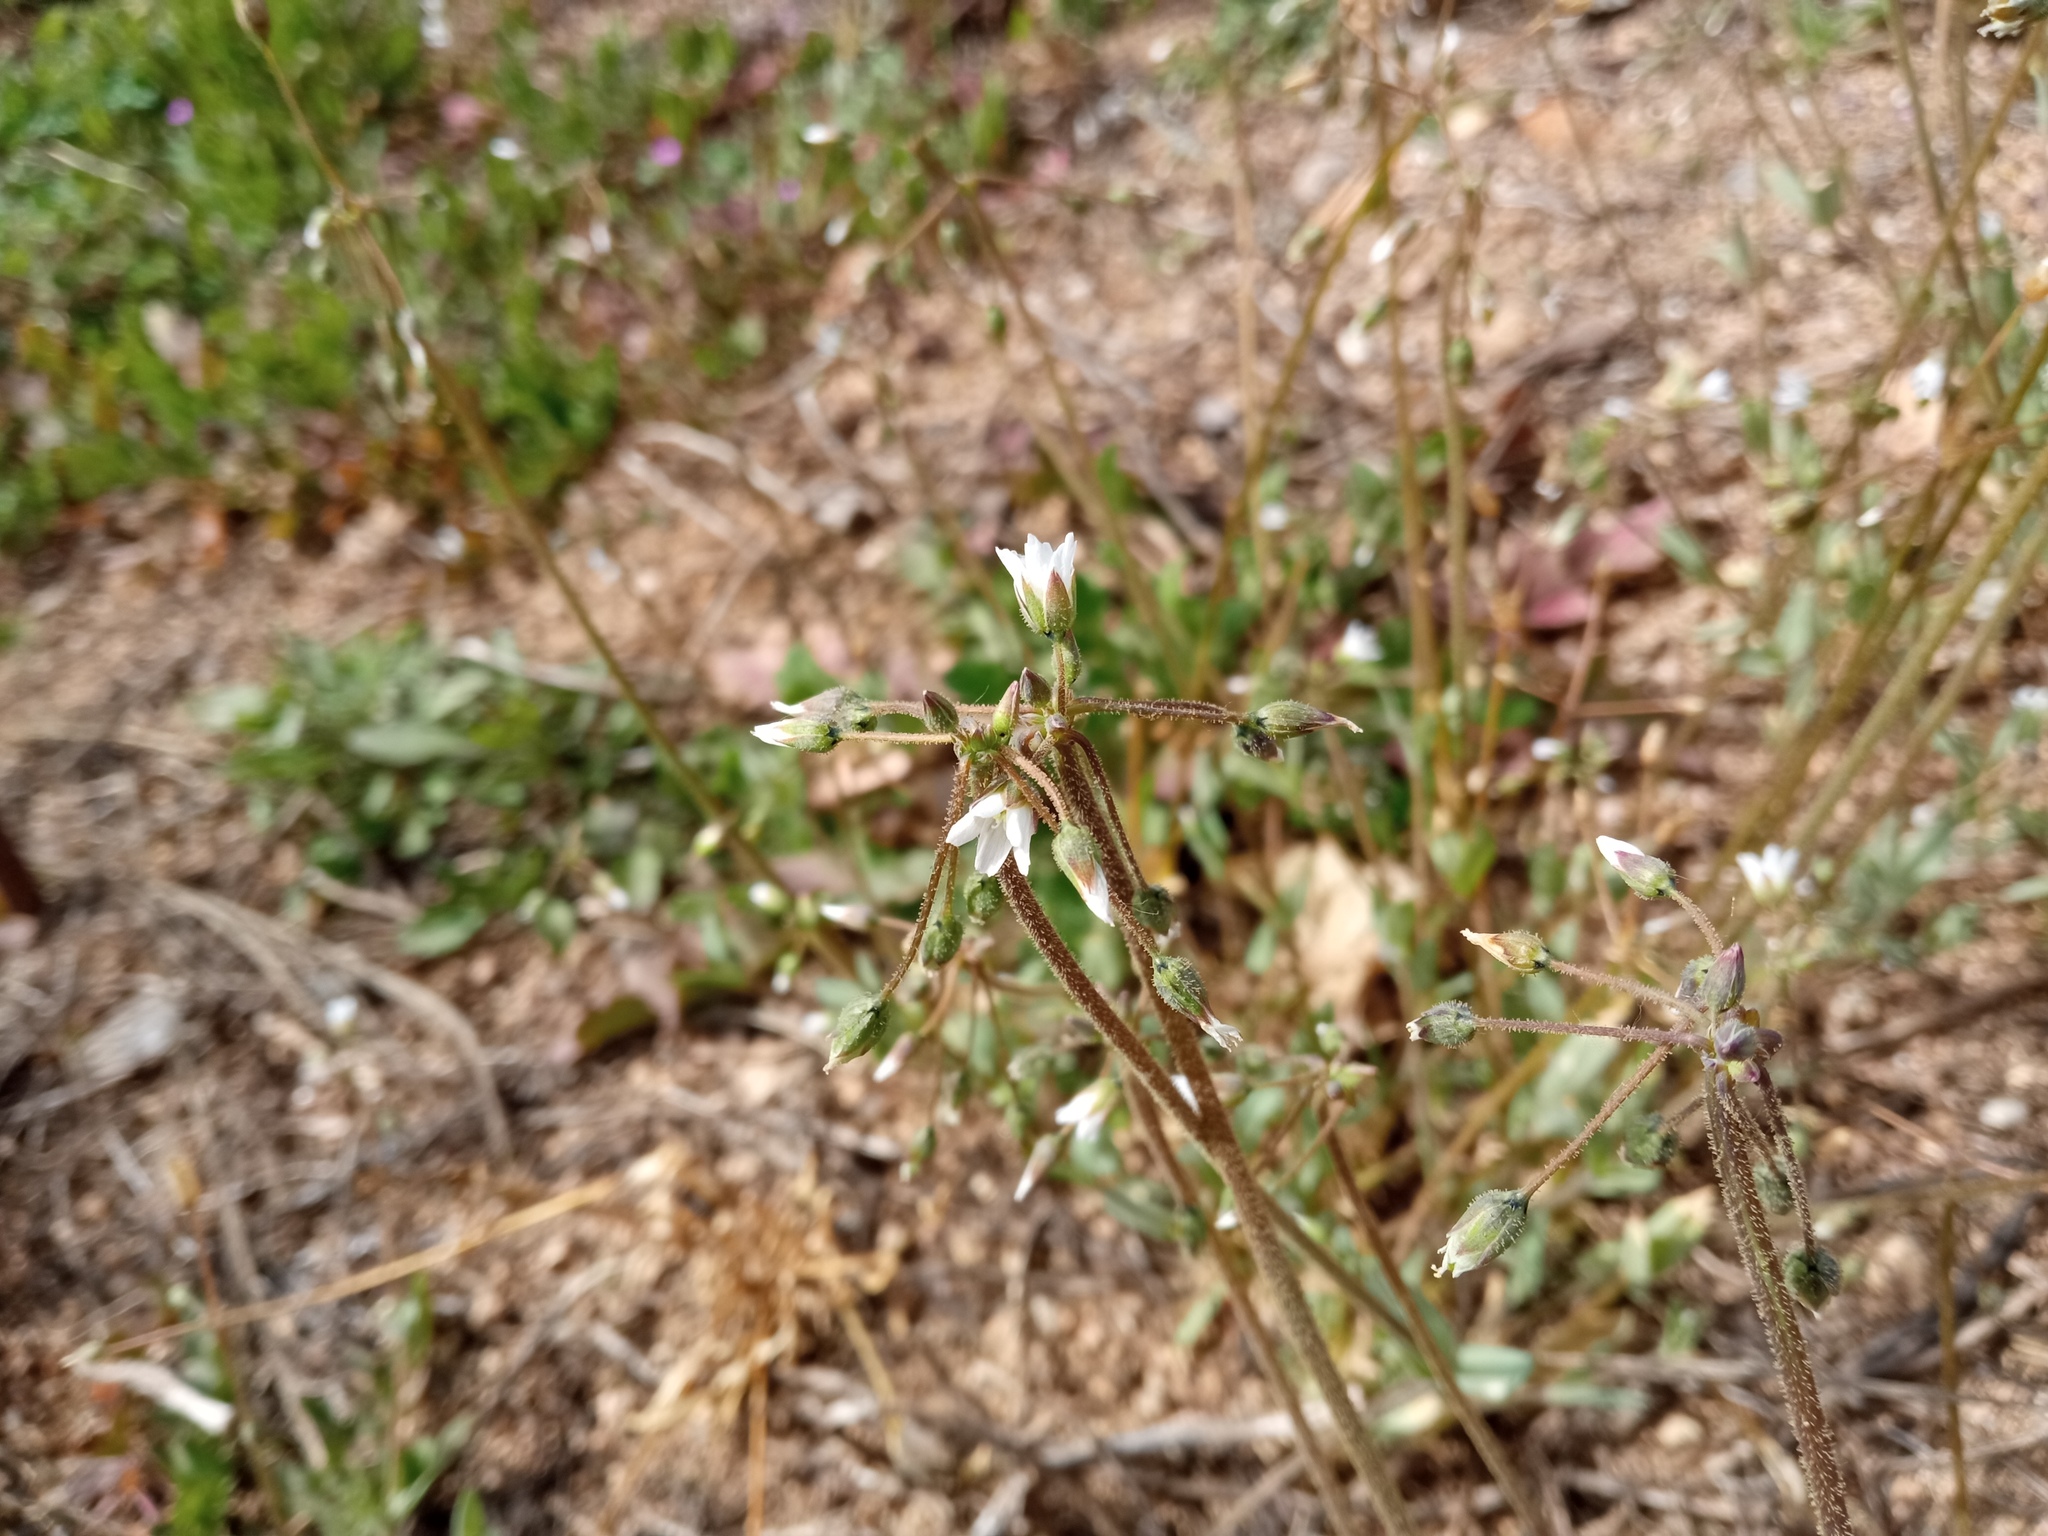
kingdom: Plantae
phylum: Tracheophyta
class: Magnoliopsida
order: Caryophyllales
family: Caryophyllaceae
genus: Holosteum
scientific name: Holosteum umbellatum
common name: Jagged chickweed
